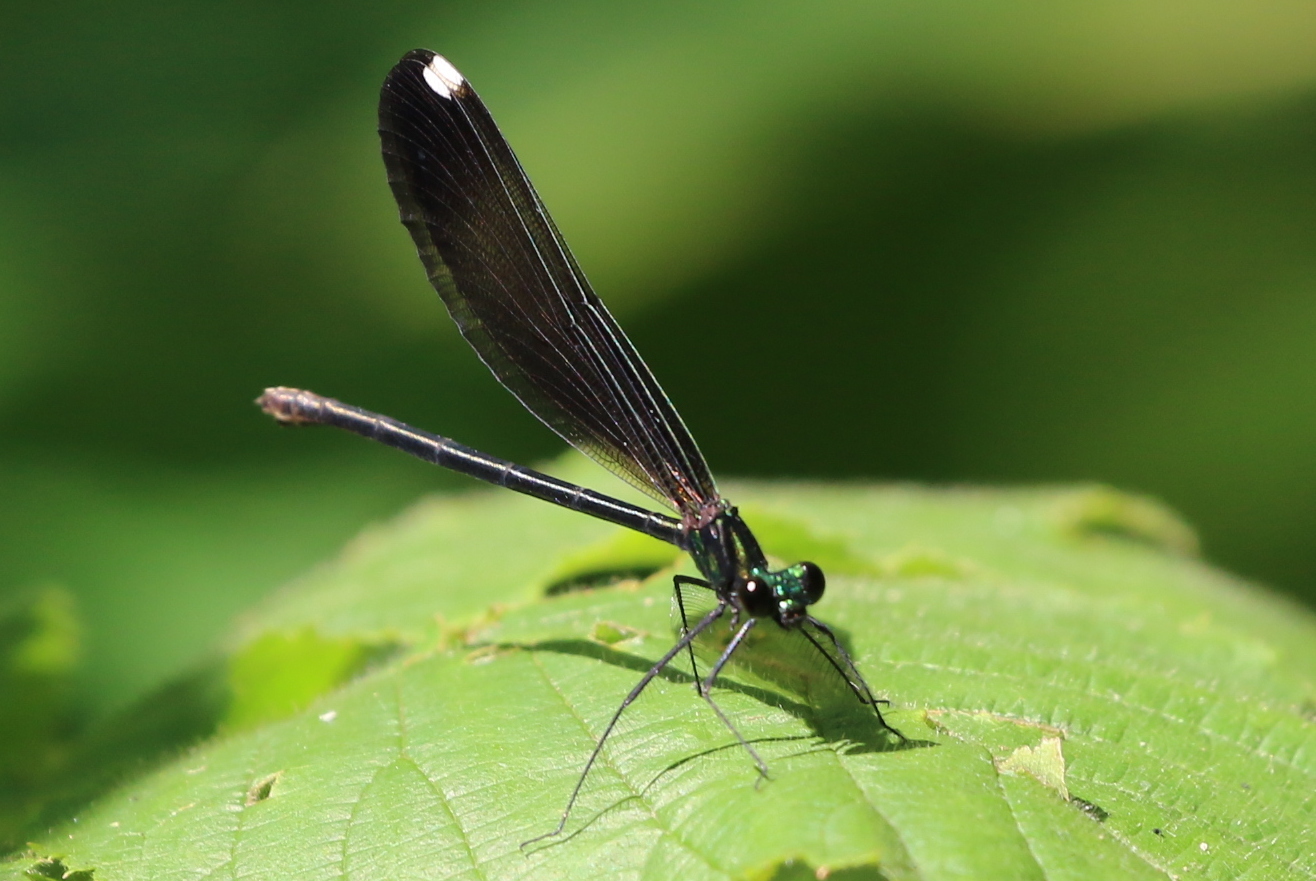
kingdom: Animalia
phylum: Arthropoda
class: Insecta
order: Odonata
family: Calopterygidae
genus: Calopteryx
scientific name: Calopteryx maculata
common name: Ebony jewelwing
